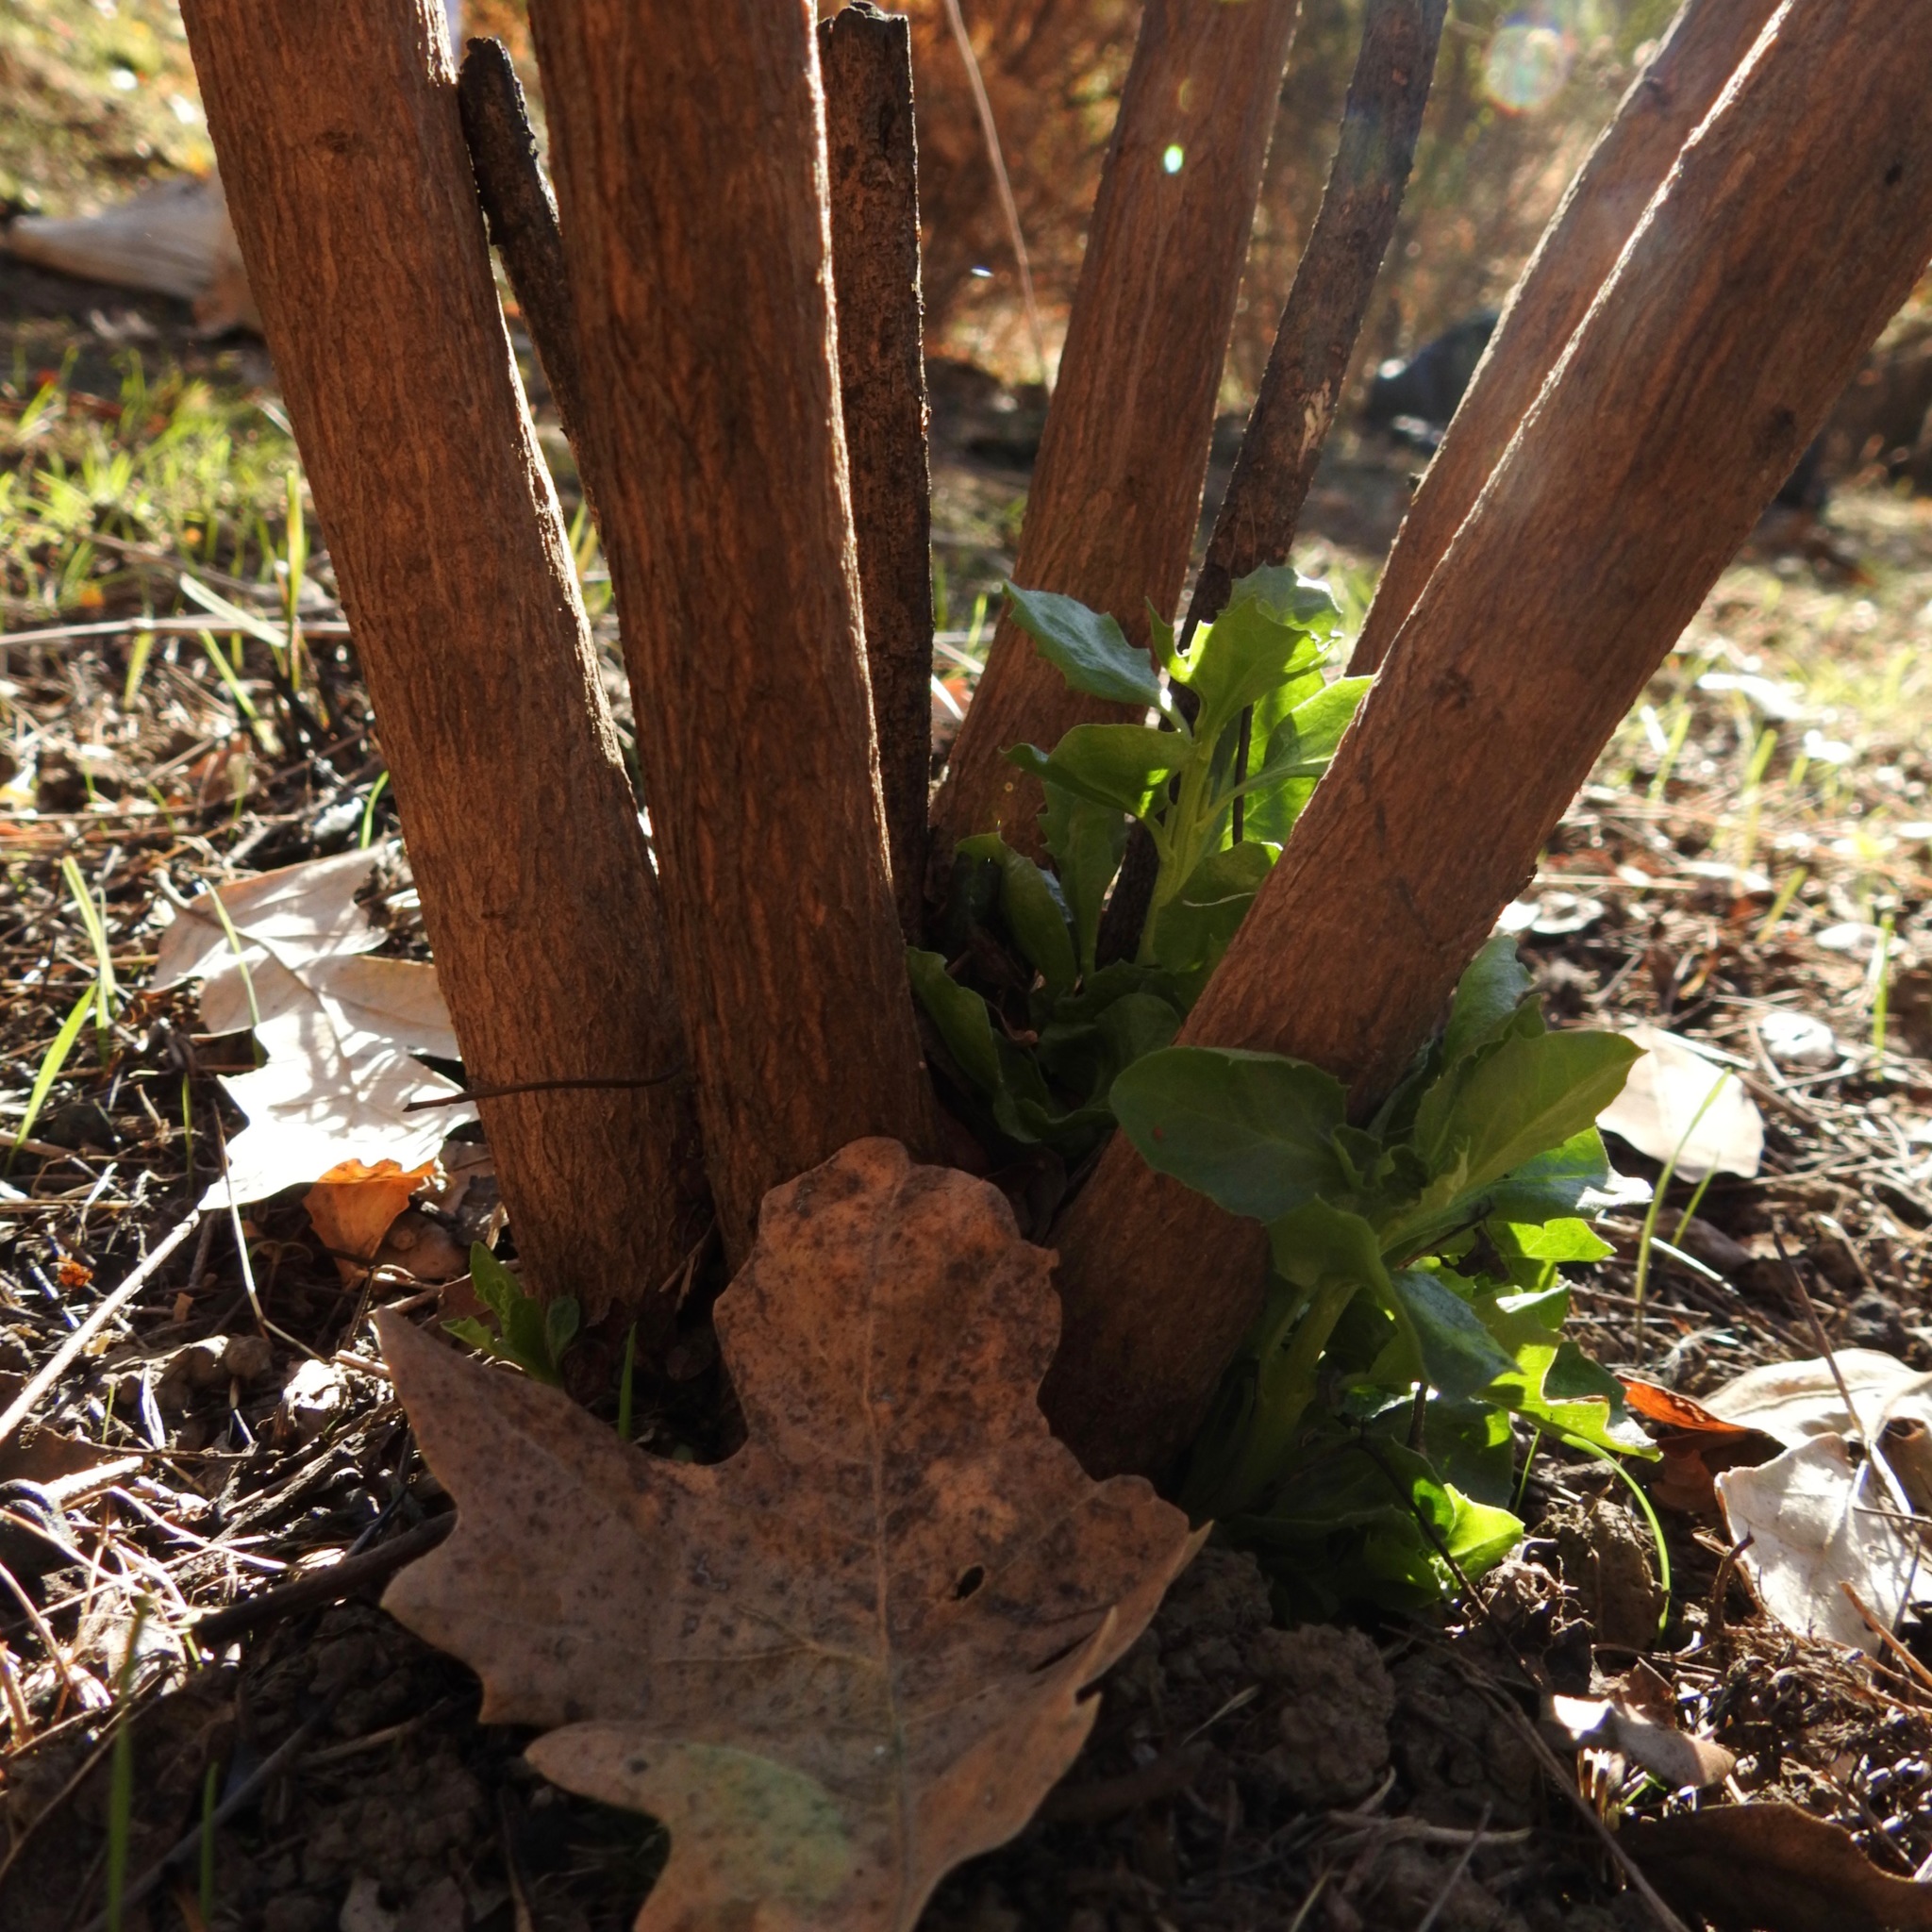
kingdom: Plantae
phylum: Tracheophyta
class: Magnoliopsida
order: Asterales
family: Asteraceae
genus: Baccharis
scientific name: Baccharis pilularis
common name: Coyotebrush
